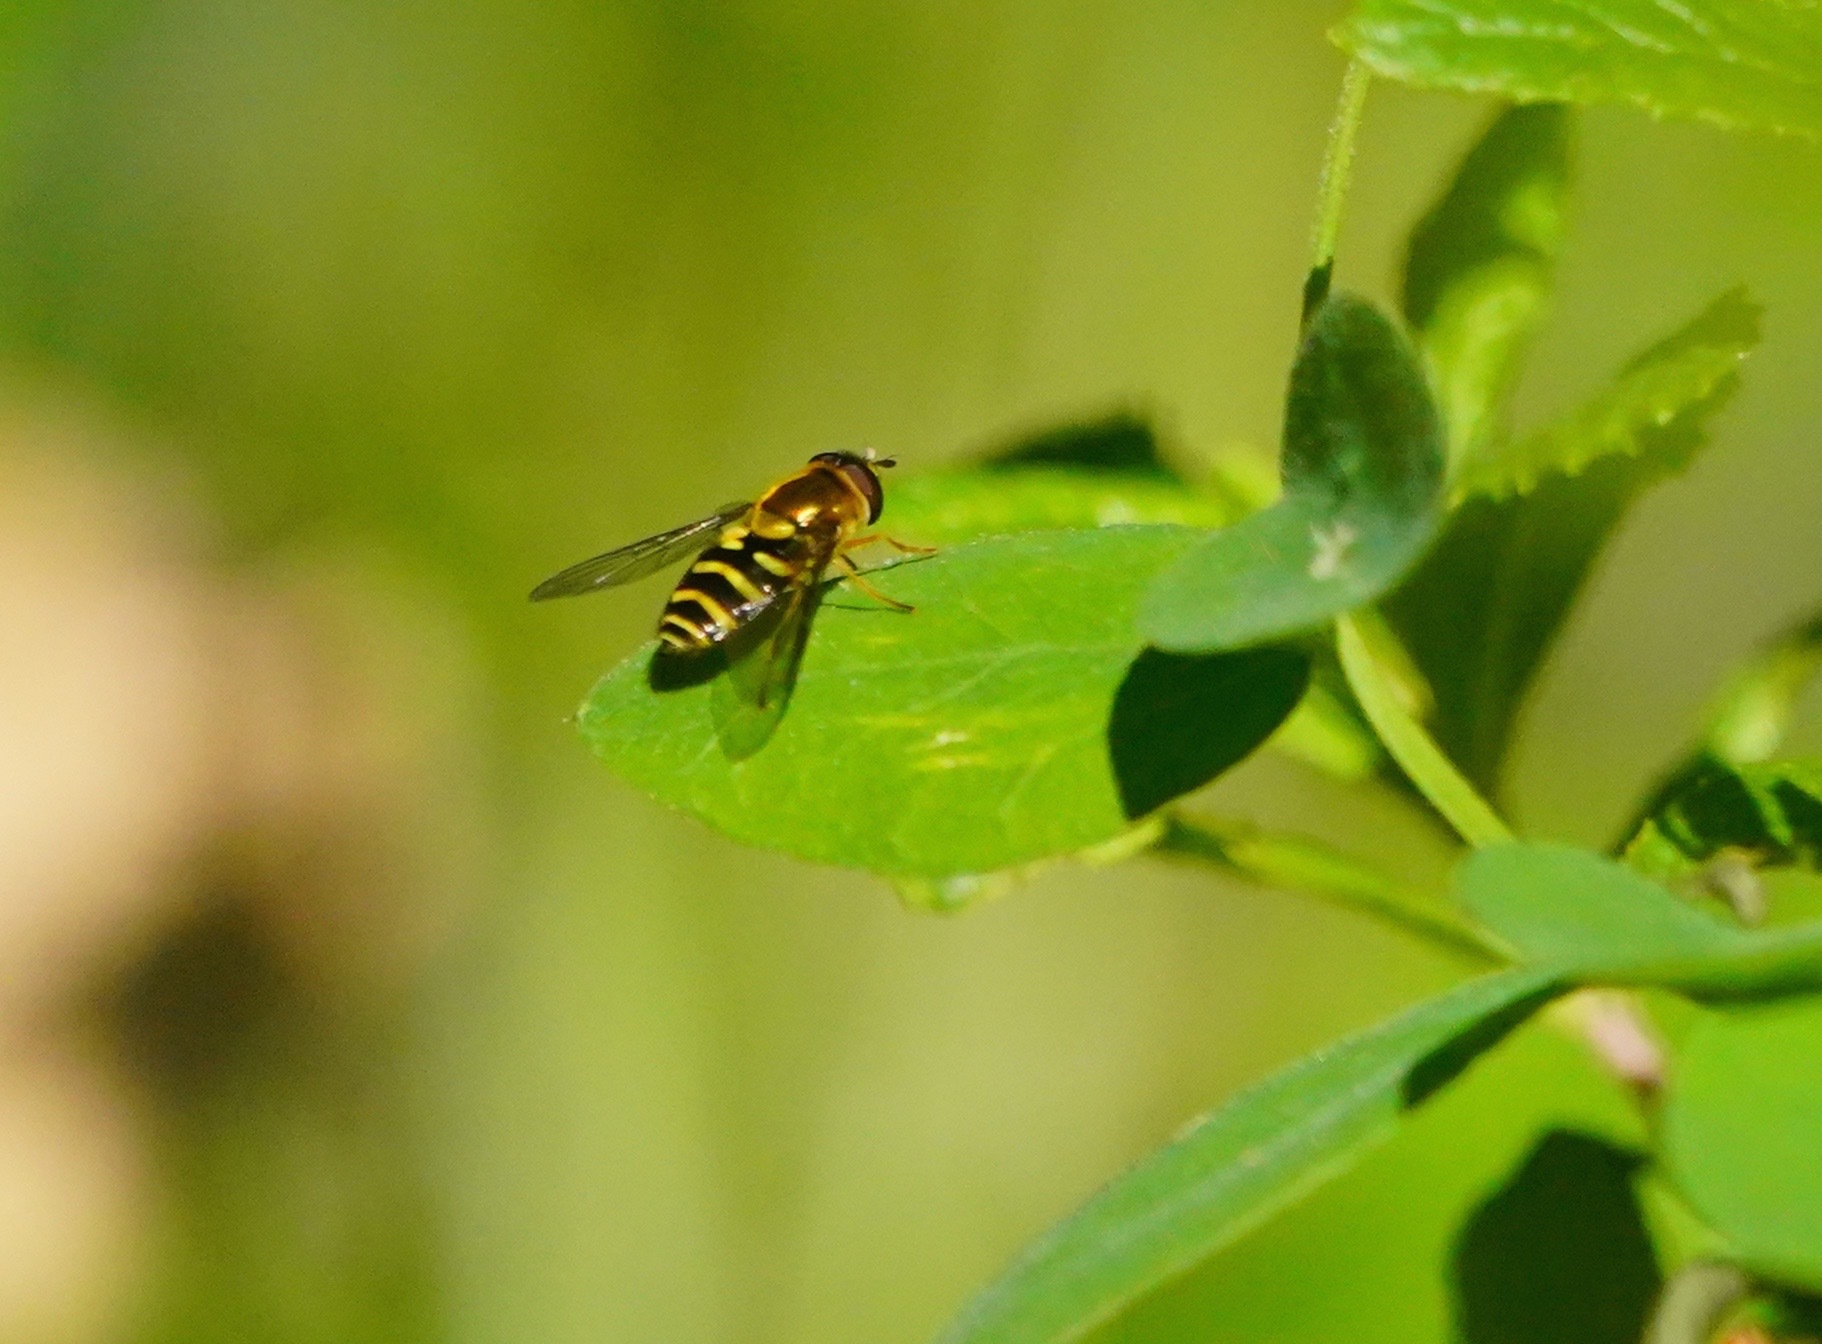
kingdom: Animalia
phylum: Arthropoda
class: Insecta
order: Diptera
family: Syrphidae
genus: Syrphus
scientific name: Syrphus opinator
